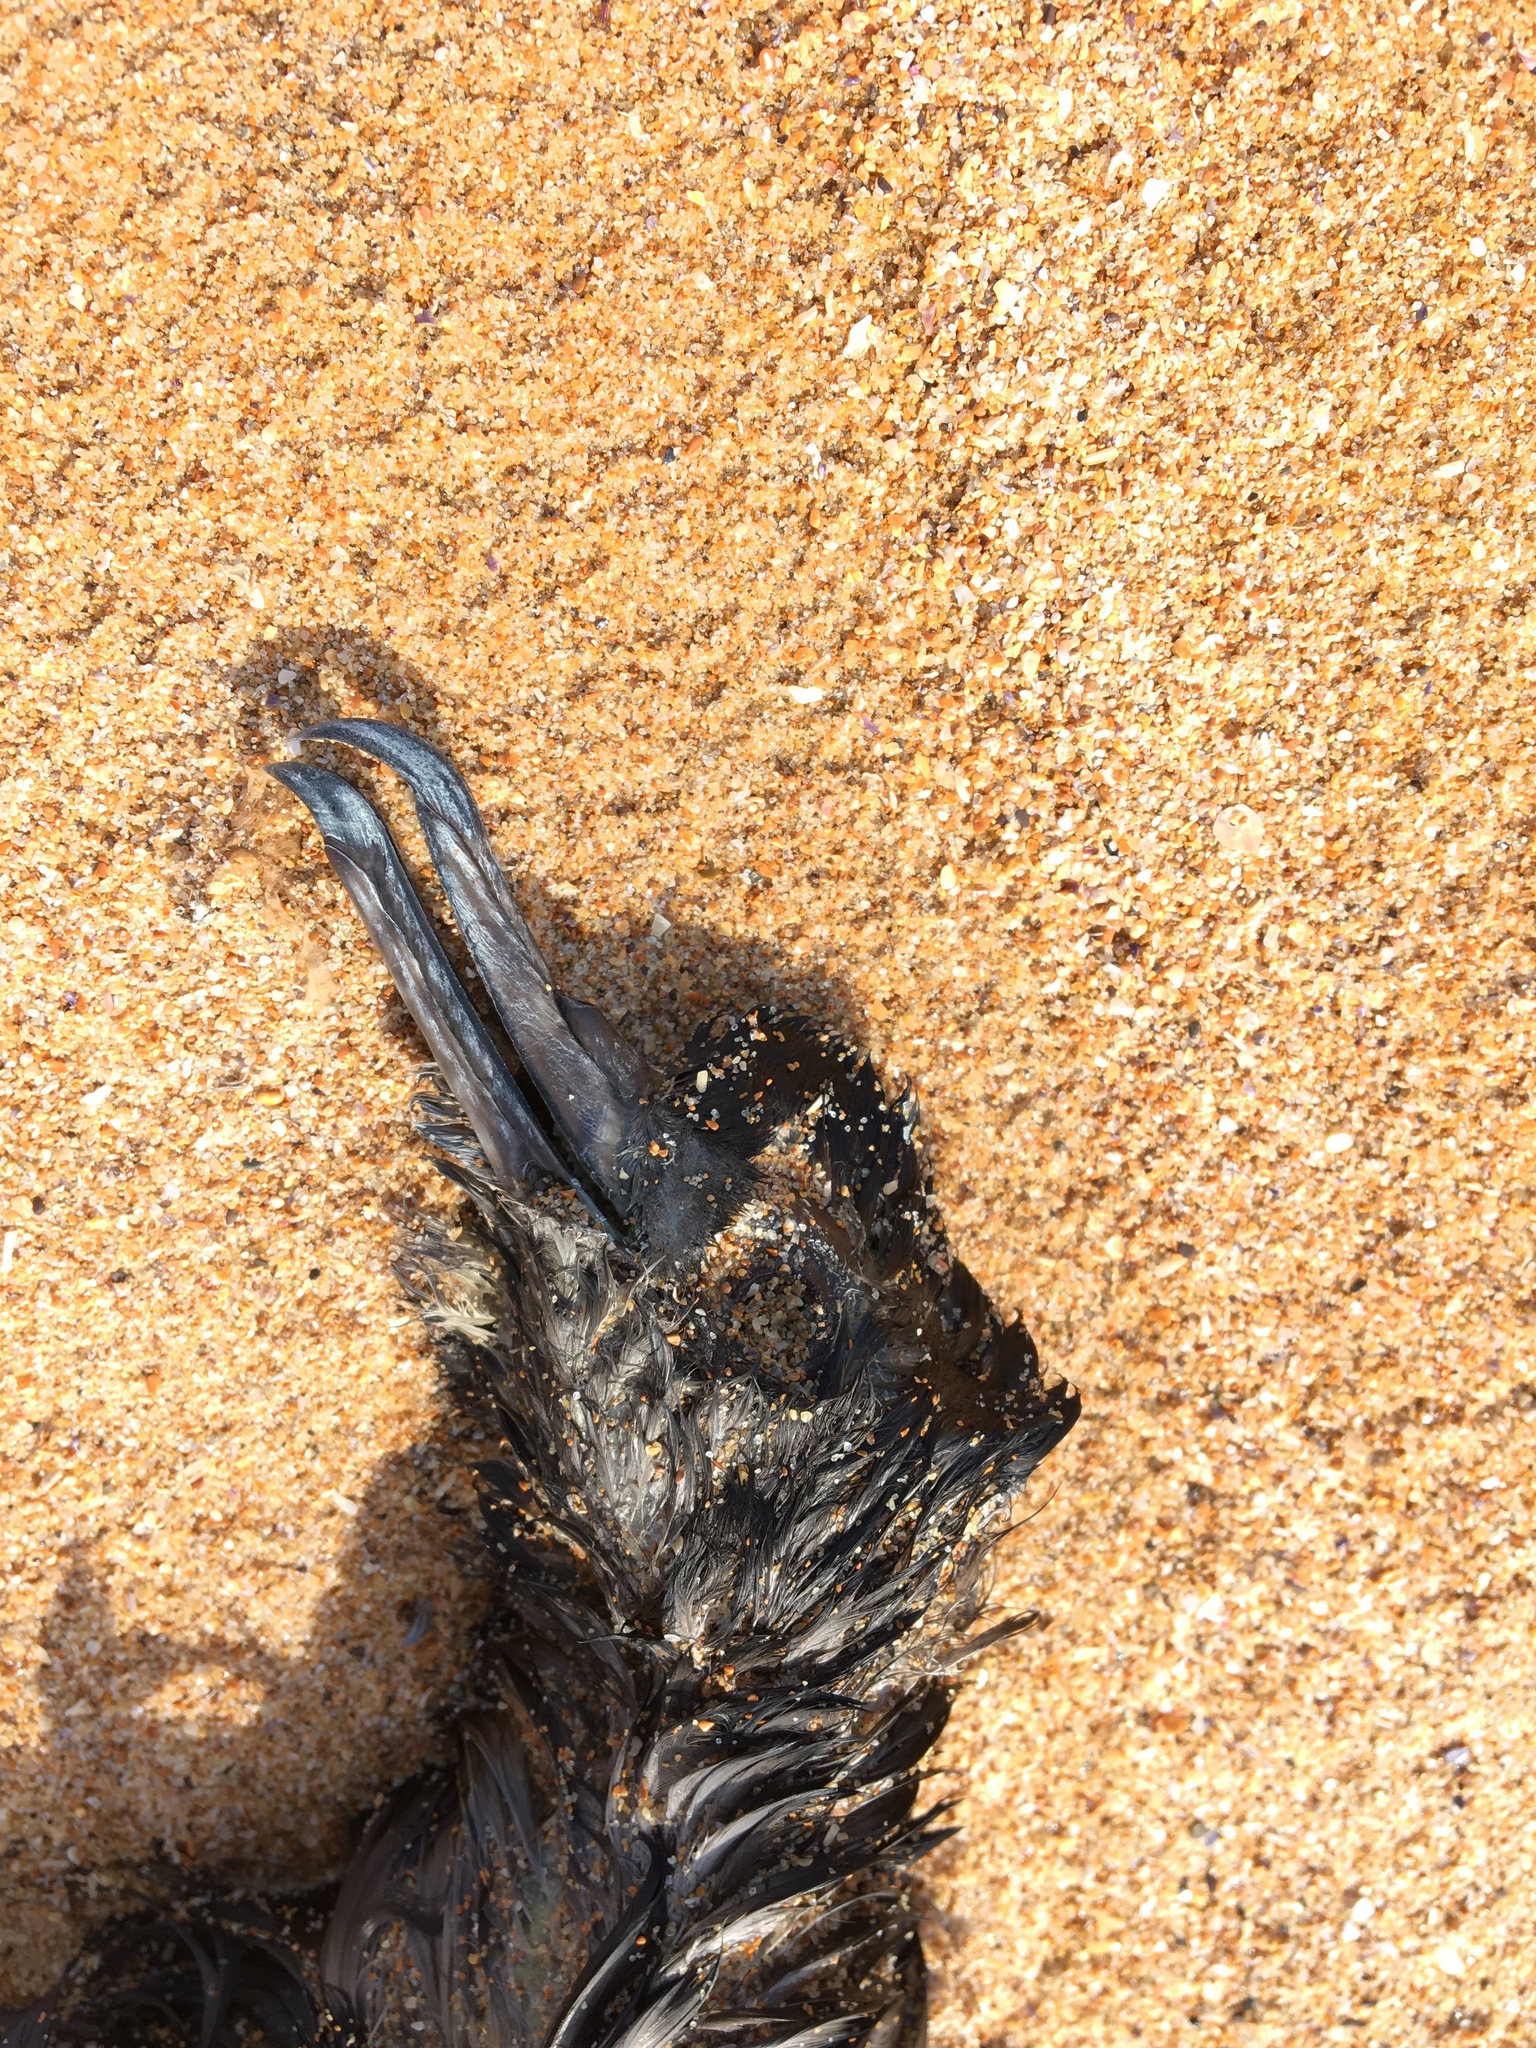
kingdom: Animalia
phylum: Chordata
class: Aves
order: Procellariiformes
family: Procellariidae
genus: Puffinus
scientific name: Puffinus pacificus
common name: Wedge-tailed shearwater
